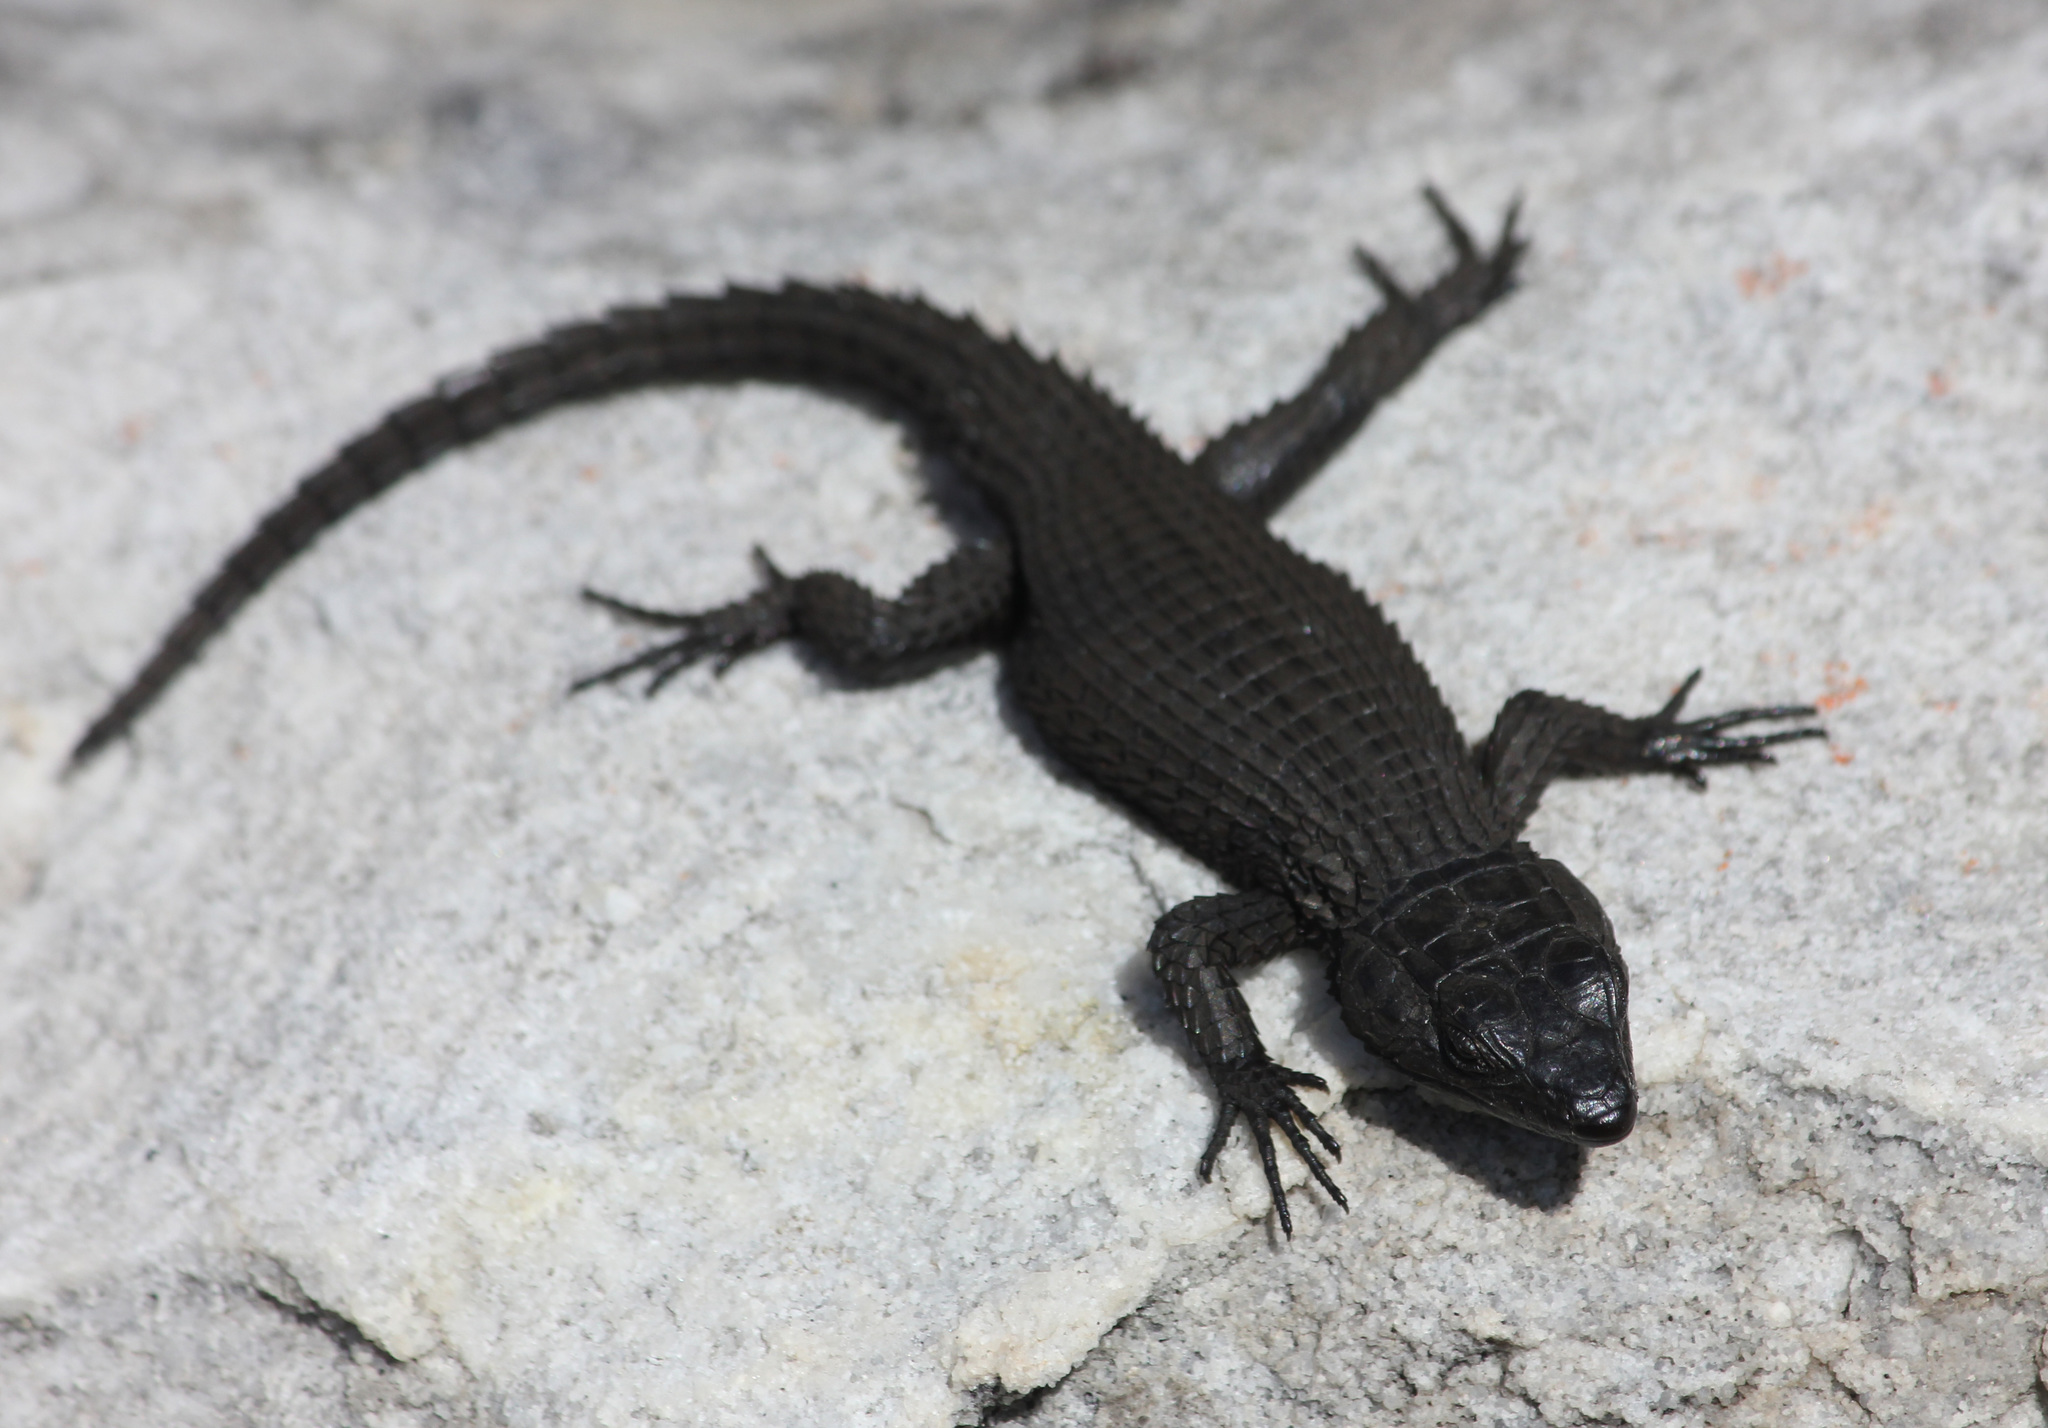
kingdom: Animalia
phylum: Chordata
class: Squamata
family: Cordylidae
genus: Cordylus
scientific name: Cordylus niger
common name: Black girdled lizard
